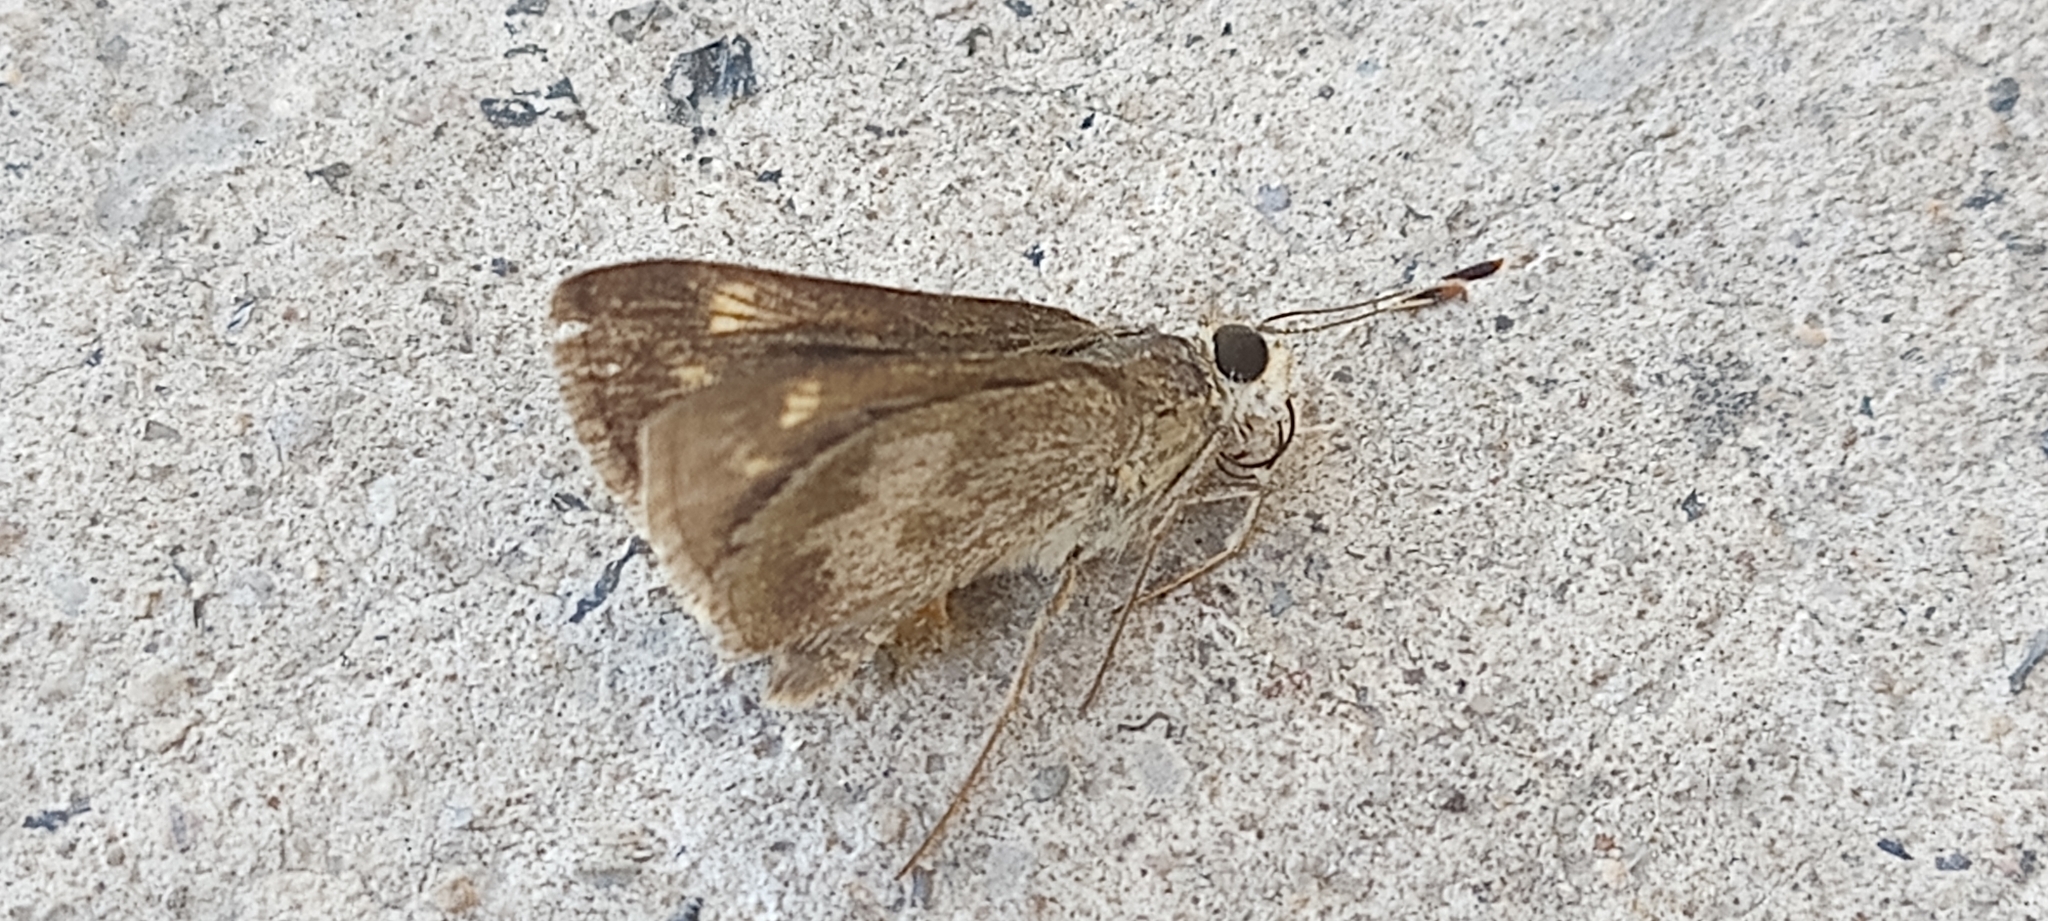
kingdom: Animalia
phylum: Arthropoda
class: Insecta
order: Lepidoptera
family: Hesperiidae
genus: Polites
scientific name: Polites vibex
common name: Whirlabout
